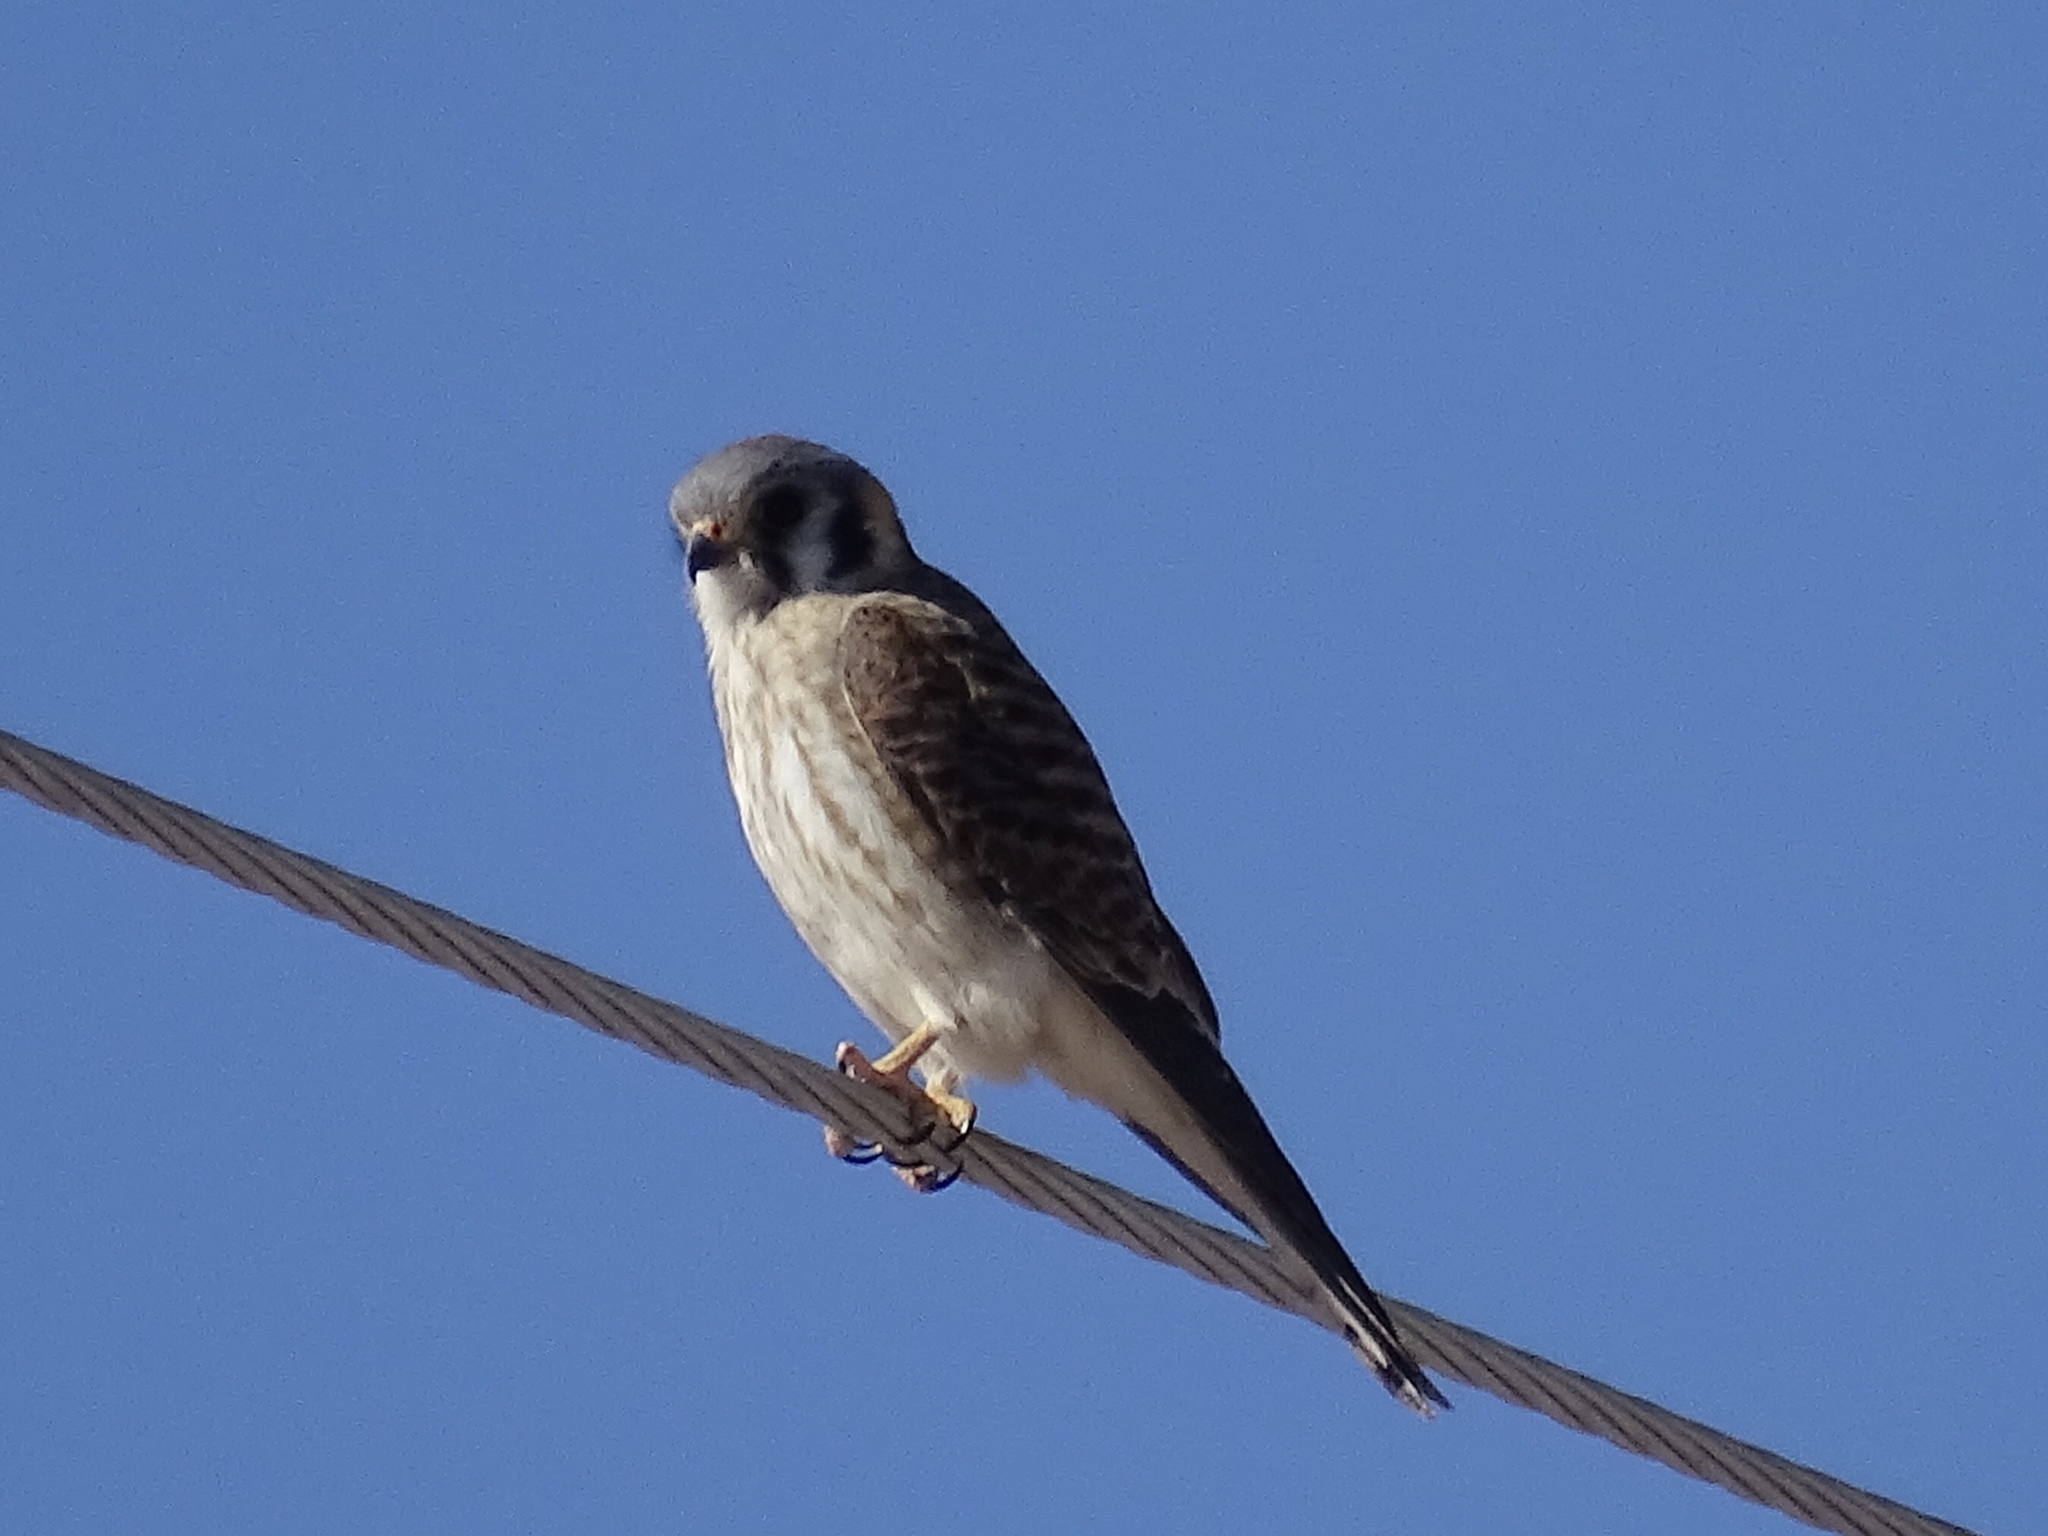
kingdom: Animalia
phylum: Chordata
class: Aves
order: Falconiformes
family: Falconidae
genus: Falco
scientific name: Falco sparverius
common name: American kestrel
